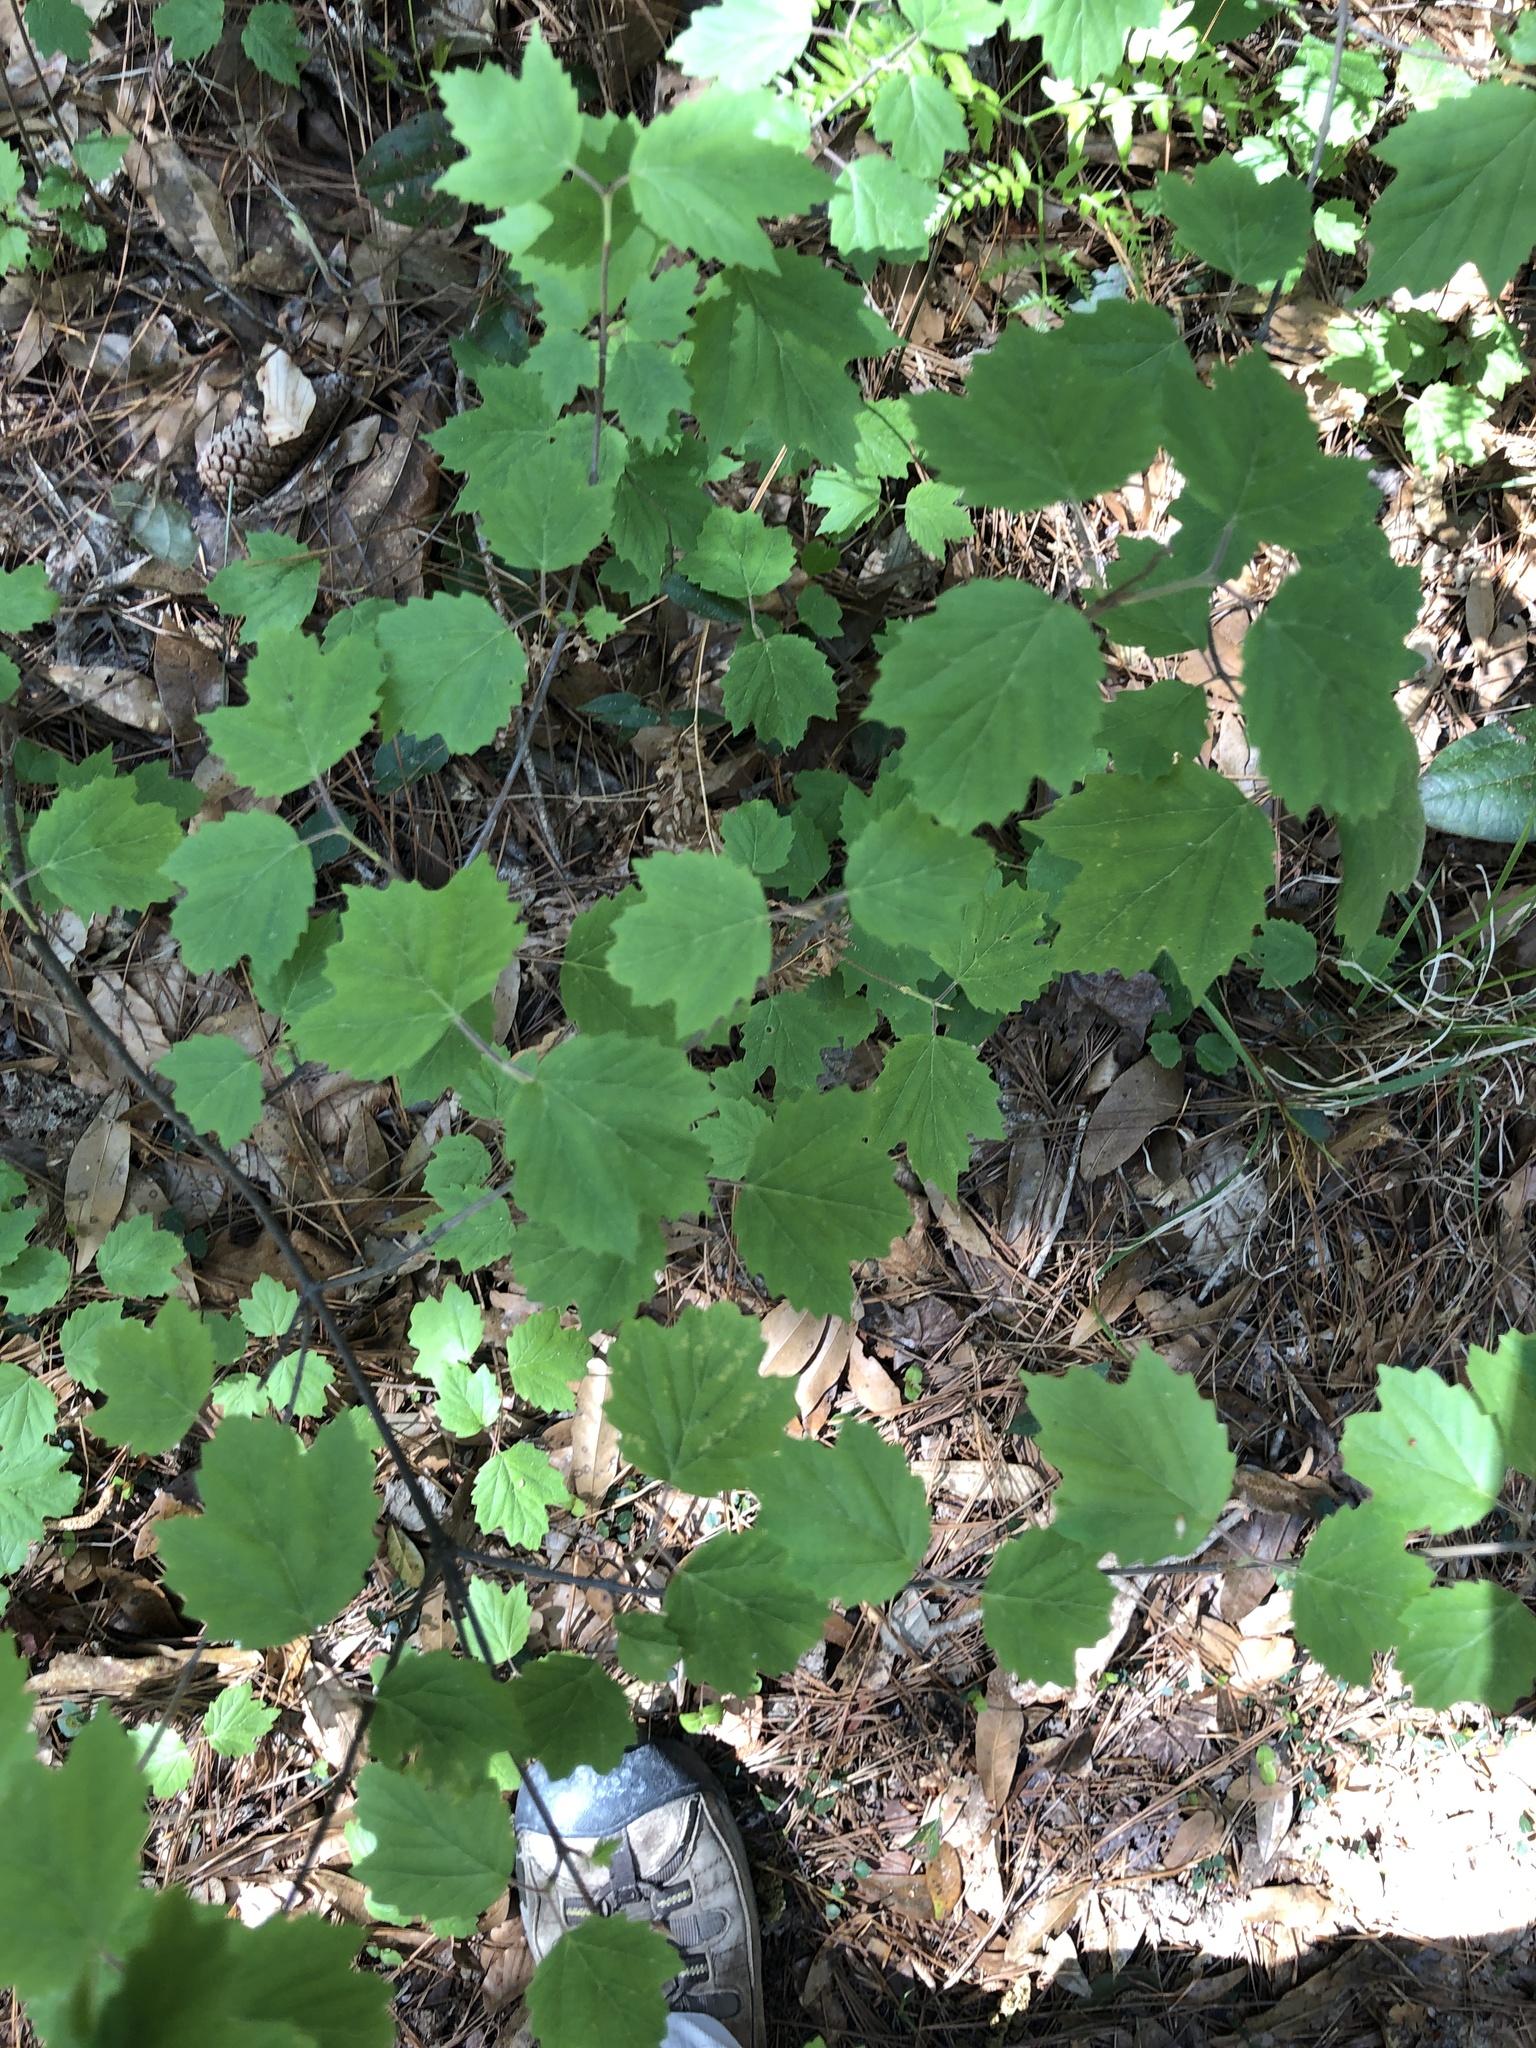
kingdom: Plantae
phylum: Tracheophyta
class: Magnoliopsida
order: Dipsacales
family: Viburnaceae
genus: Viburnum
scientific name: Viburnum acerifolium
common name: Dockmackie
